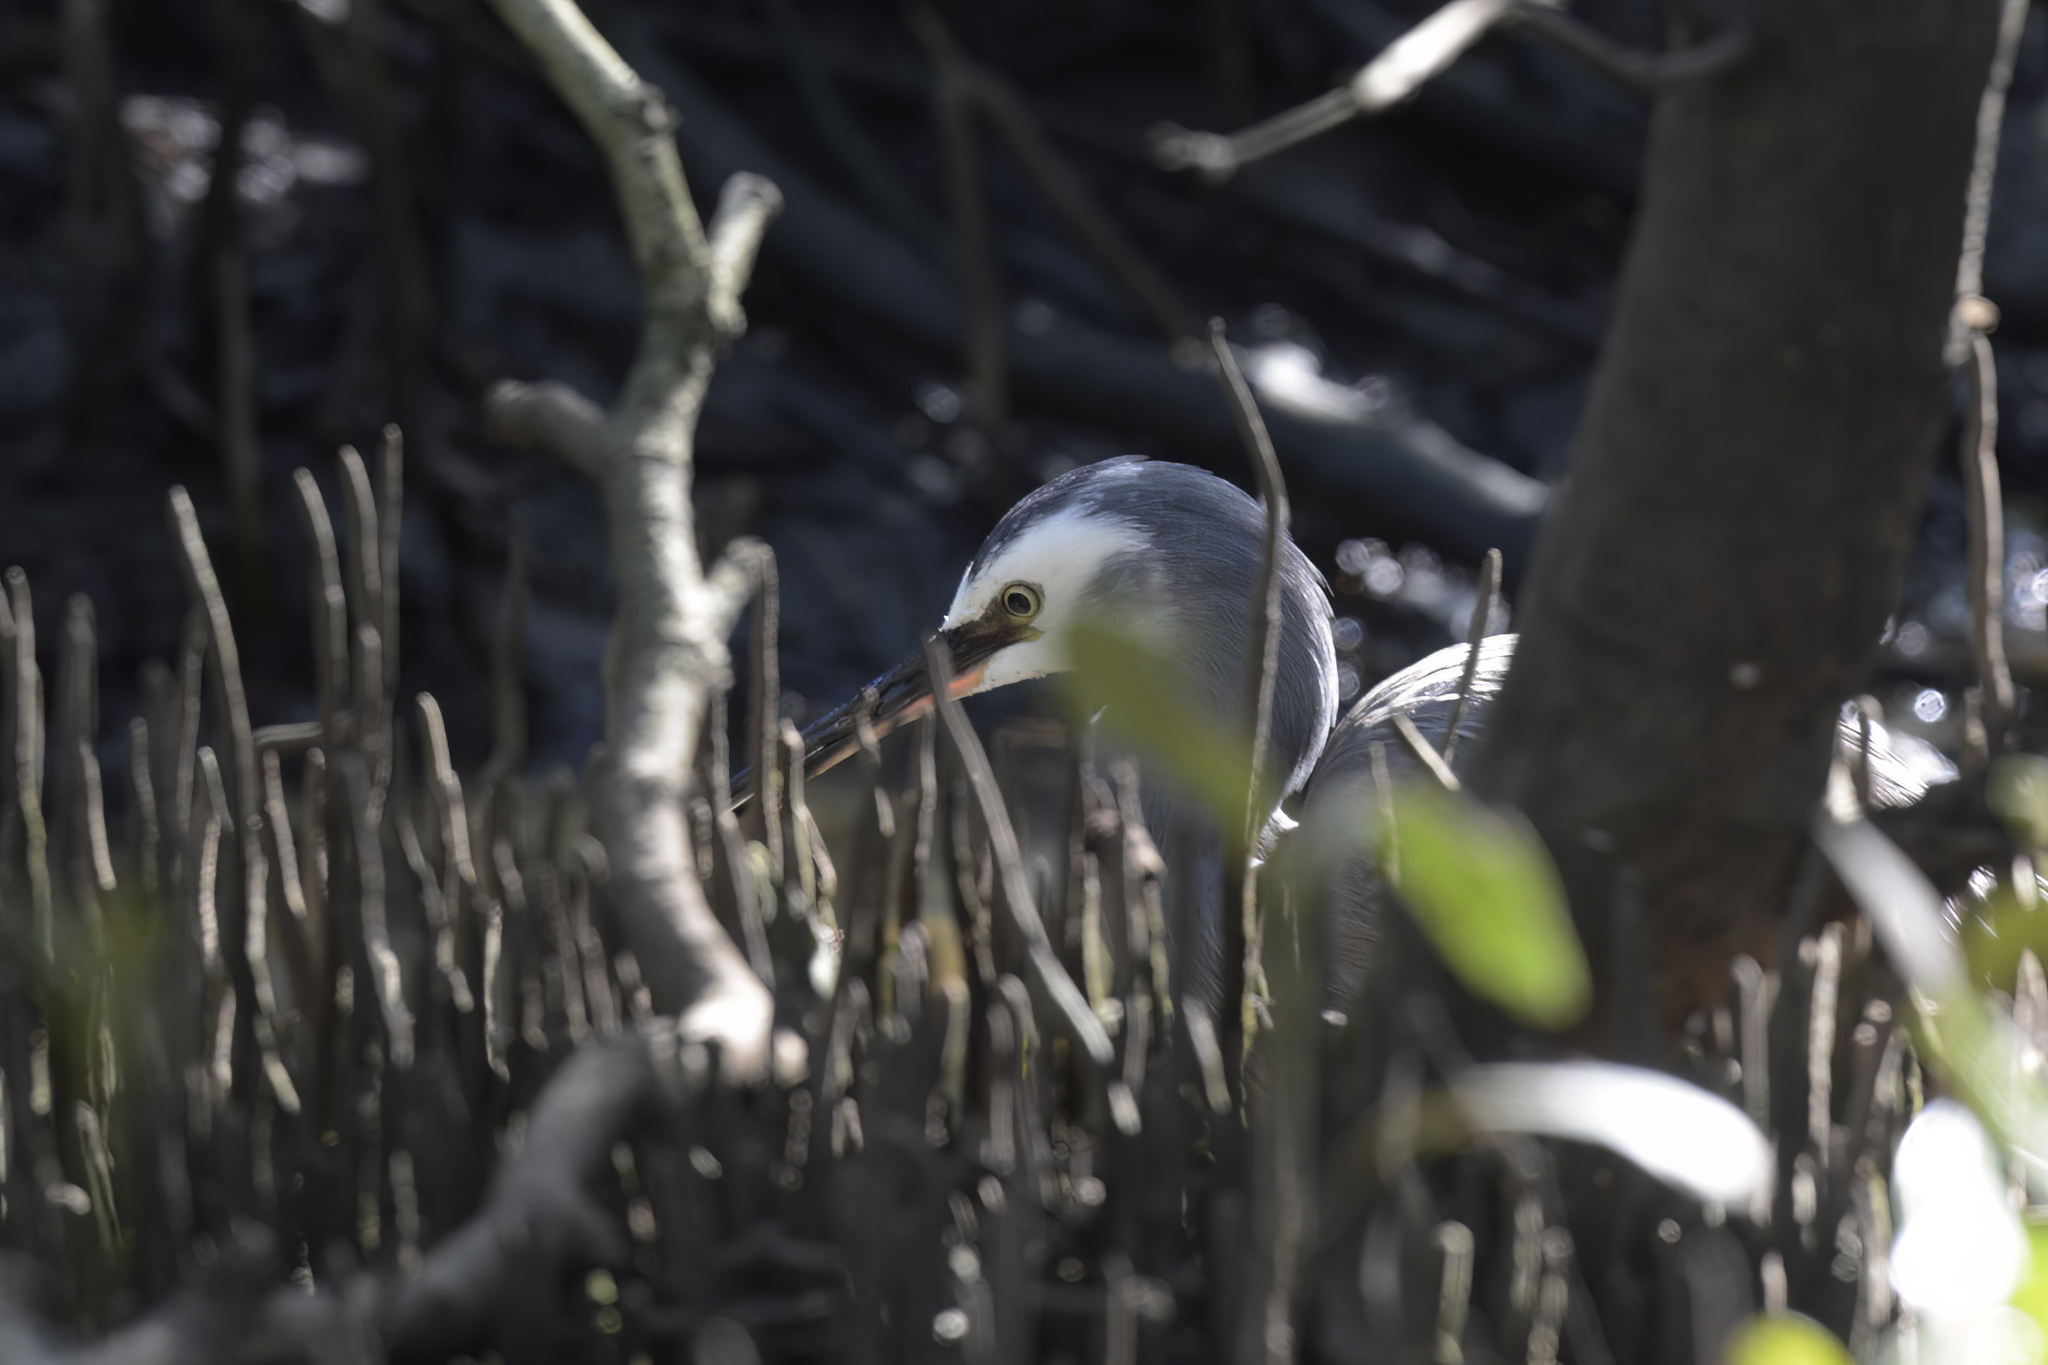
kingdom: Animalia
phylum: Chordata
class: Aves
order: Pelecaniformes
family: Ardeidae
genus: Egretta
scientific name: Egretta novaehollandiae
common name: White-faced heron
